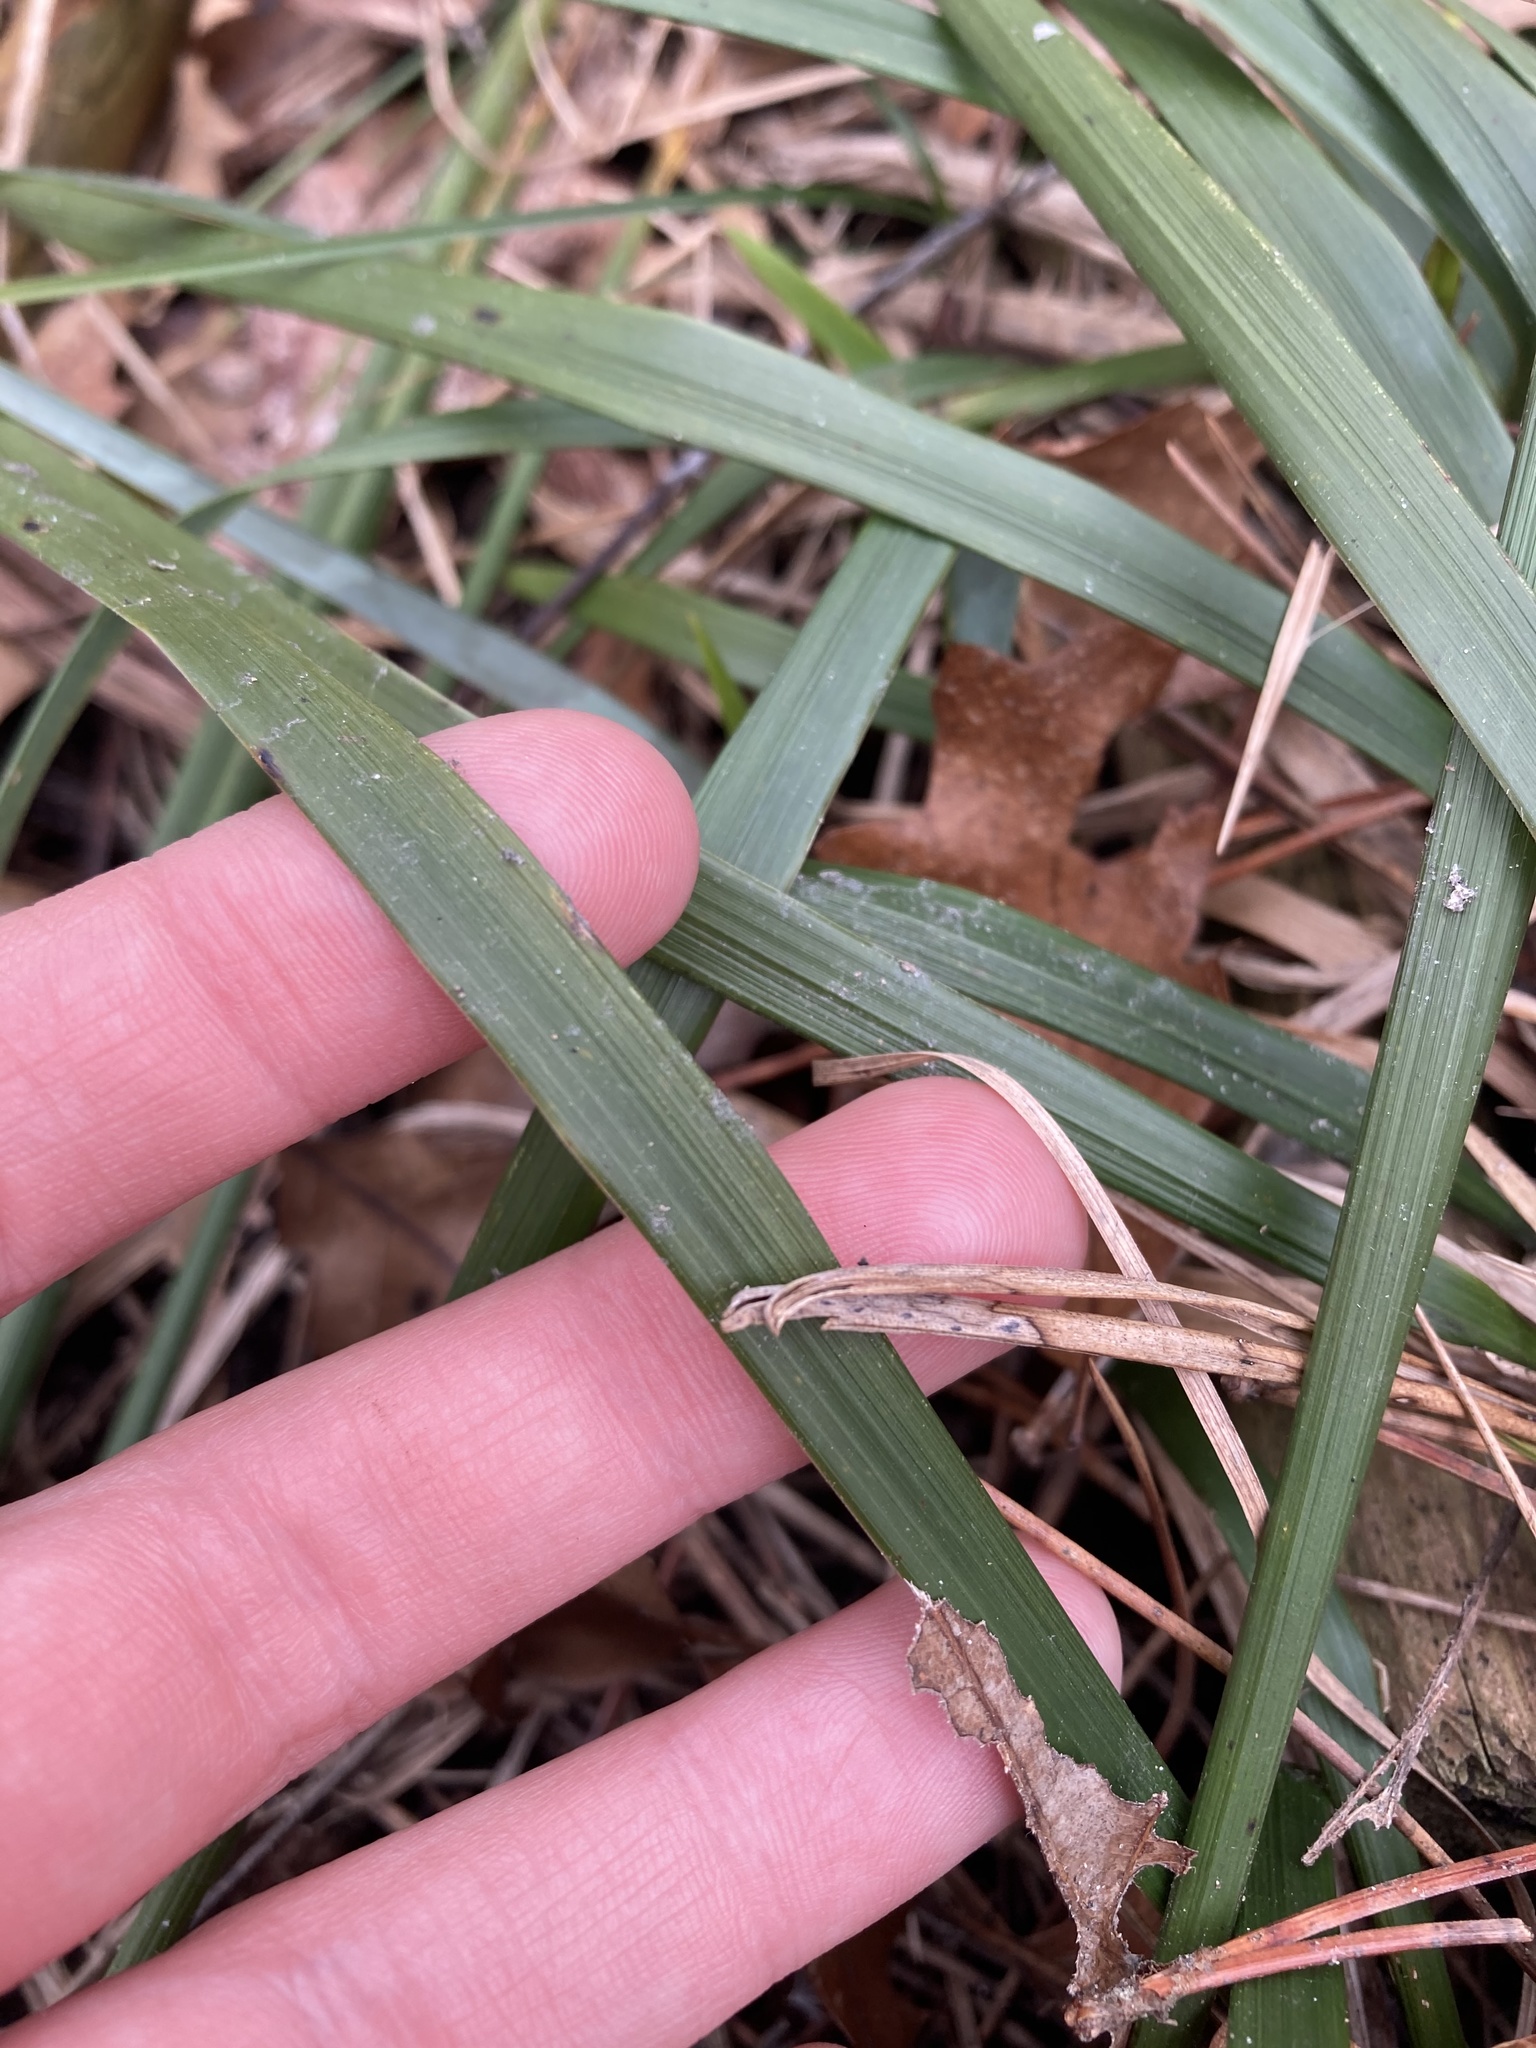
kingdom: Plantae
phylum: Tracheophyta
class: Liliopsida
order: Poales
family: Poaceae
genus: Oryzopsis
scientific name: Oryzopsis asperifolia
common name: Rough-leaved mountain rice
